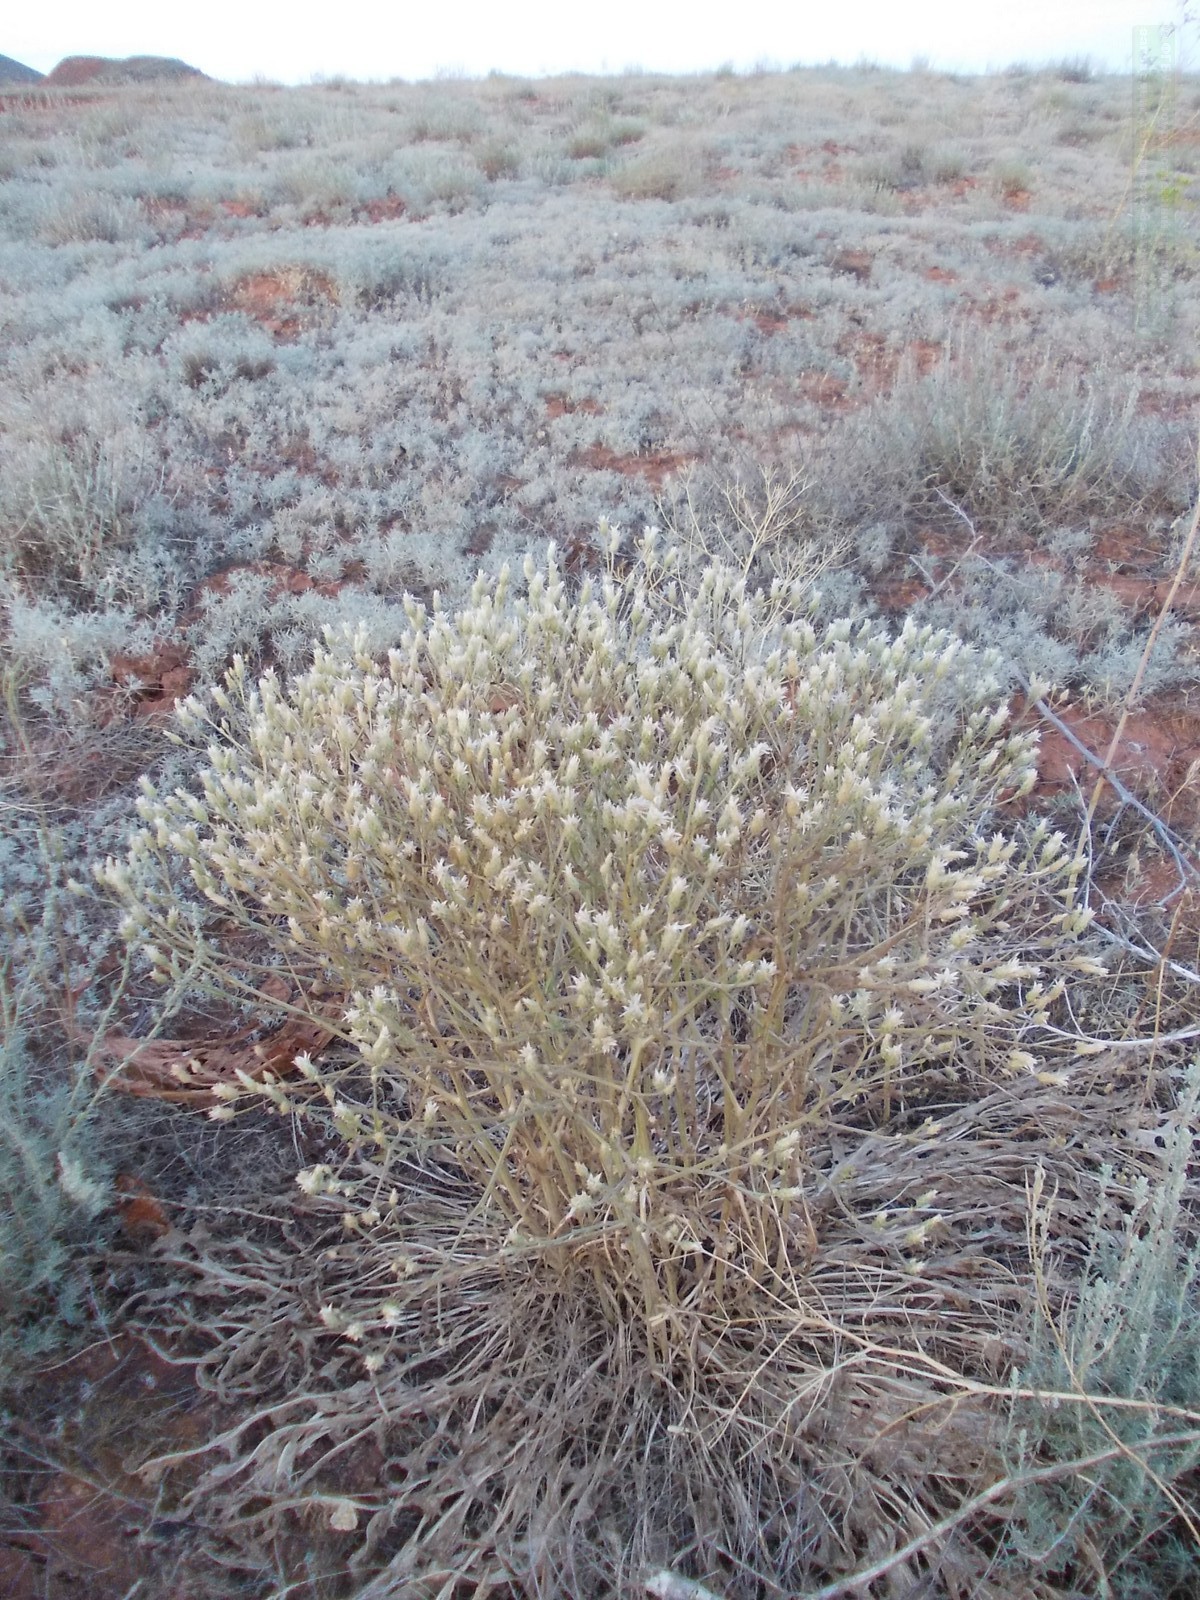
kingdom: Plantae
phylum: Tracheophyta
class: Magnoliopsida
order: Asterales
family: Asteraceae
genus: Klasea
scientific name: Klasea erucifolia
